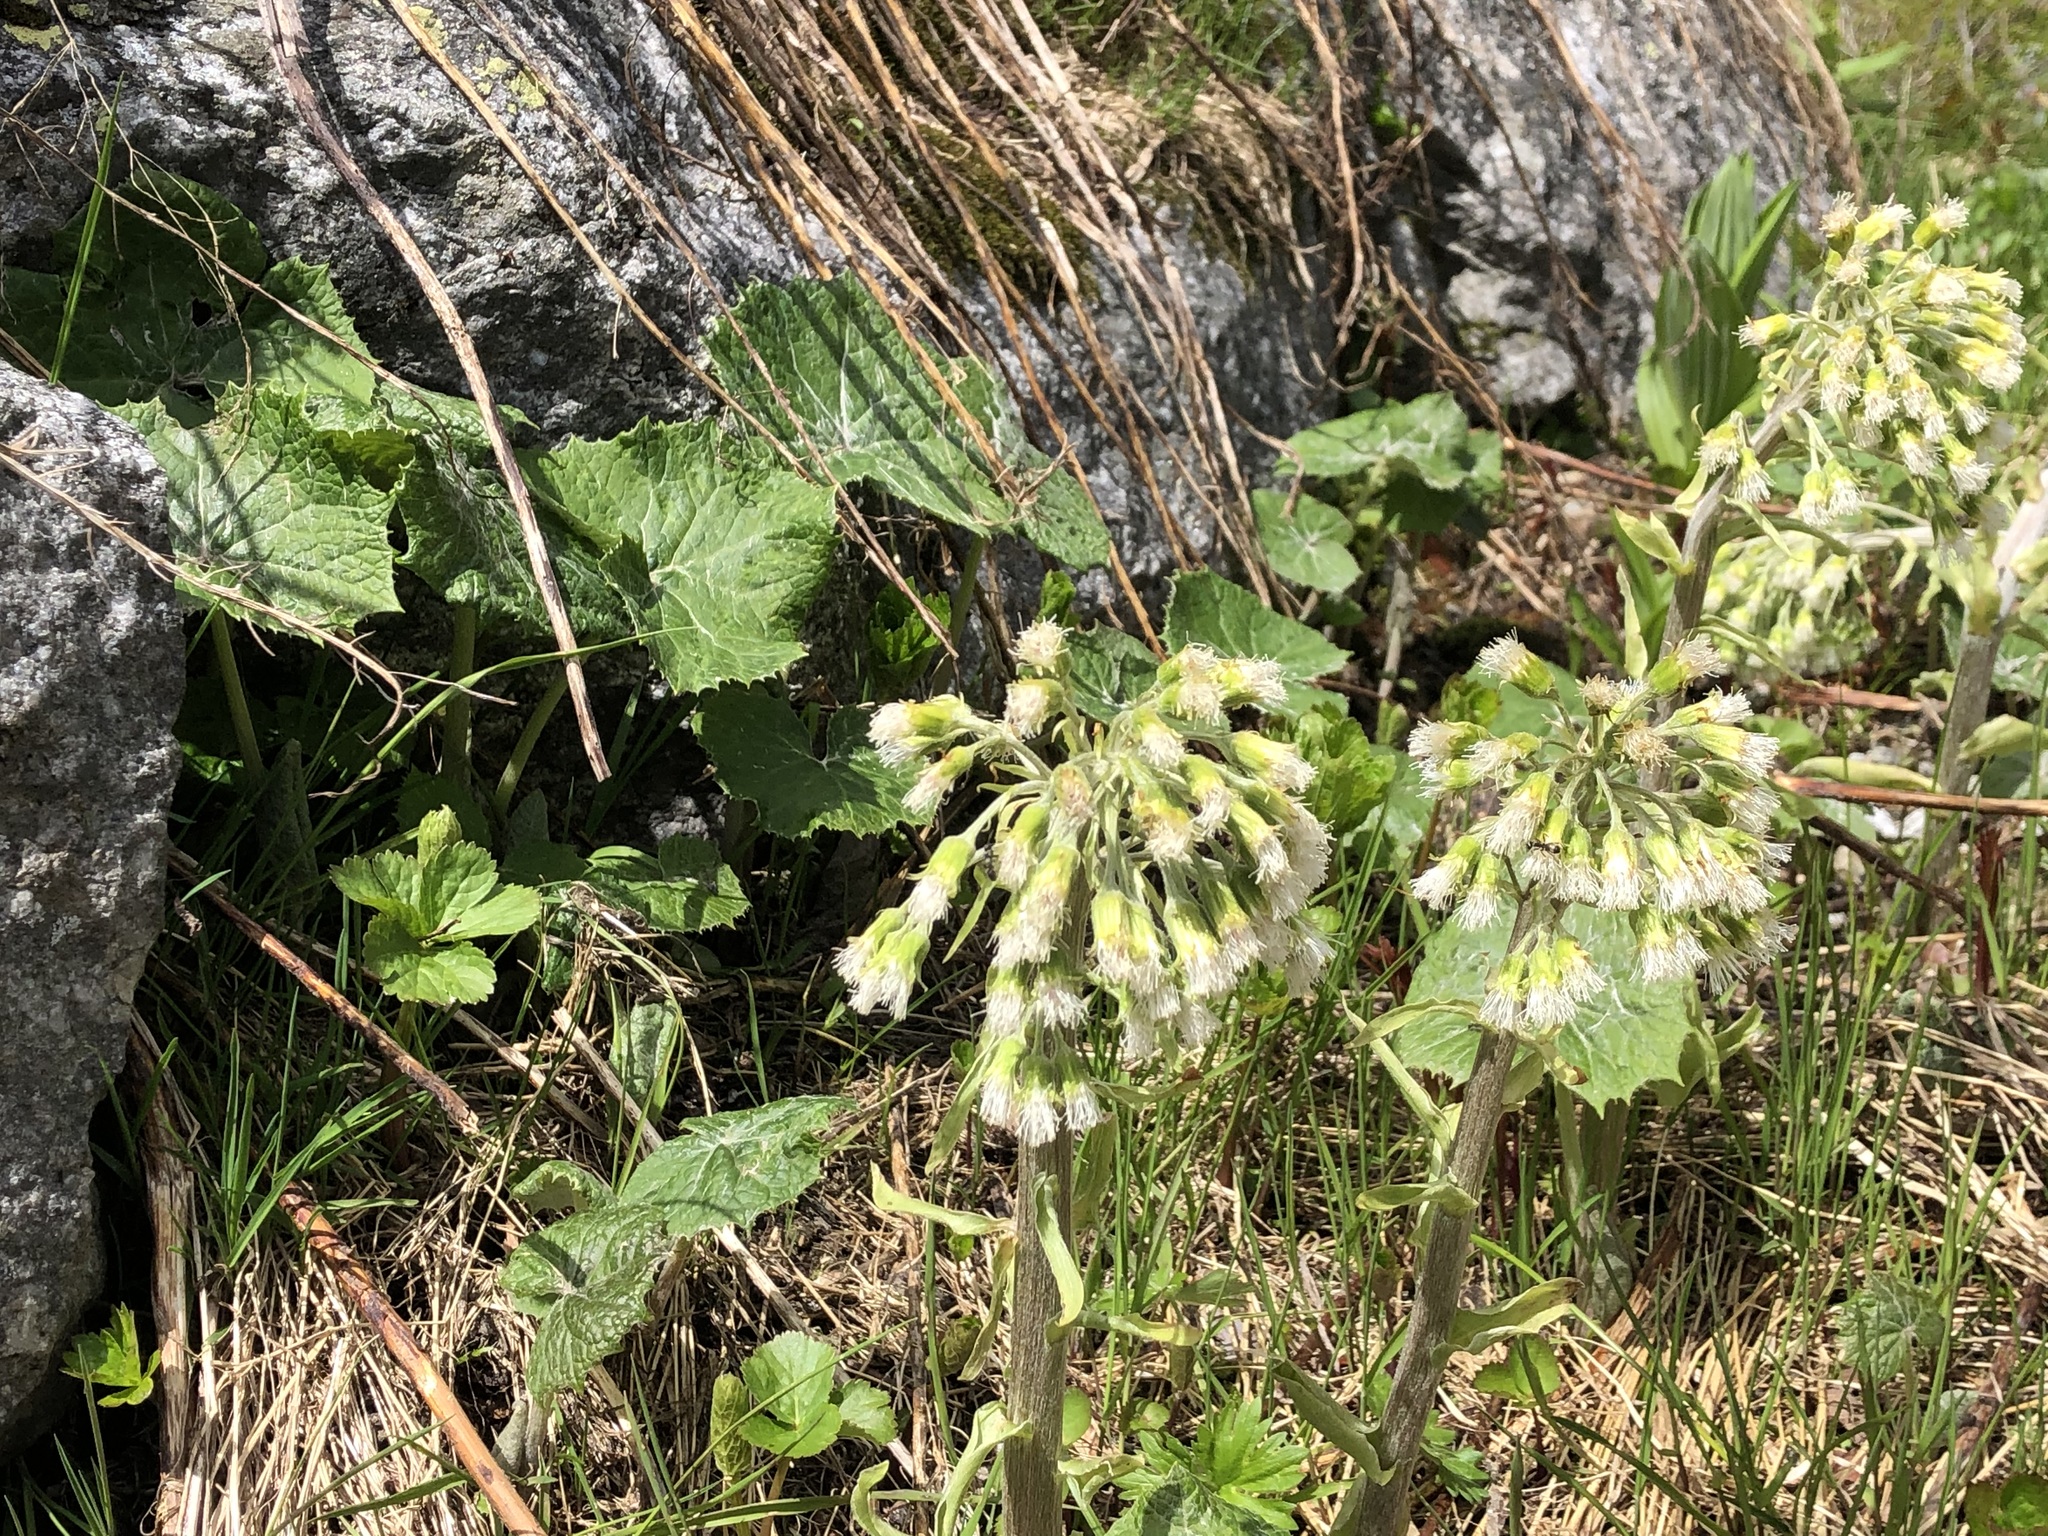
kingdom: Plantae
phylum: Tracheophyta
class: Magnoliopsida
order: Asterales
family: Asteraceae
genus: Petasites
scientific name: Petasites albus
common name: White butterbur
